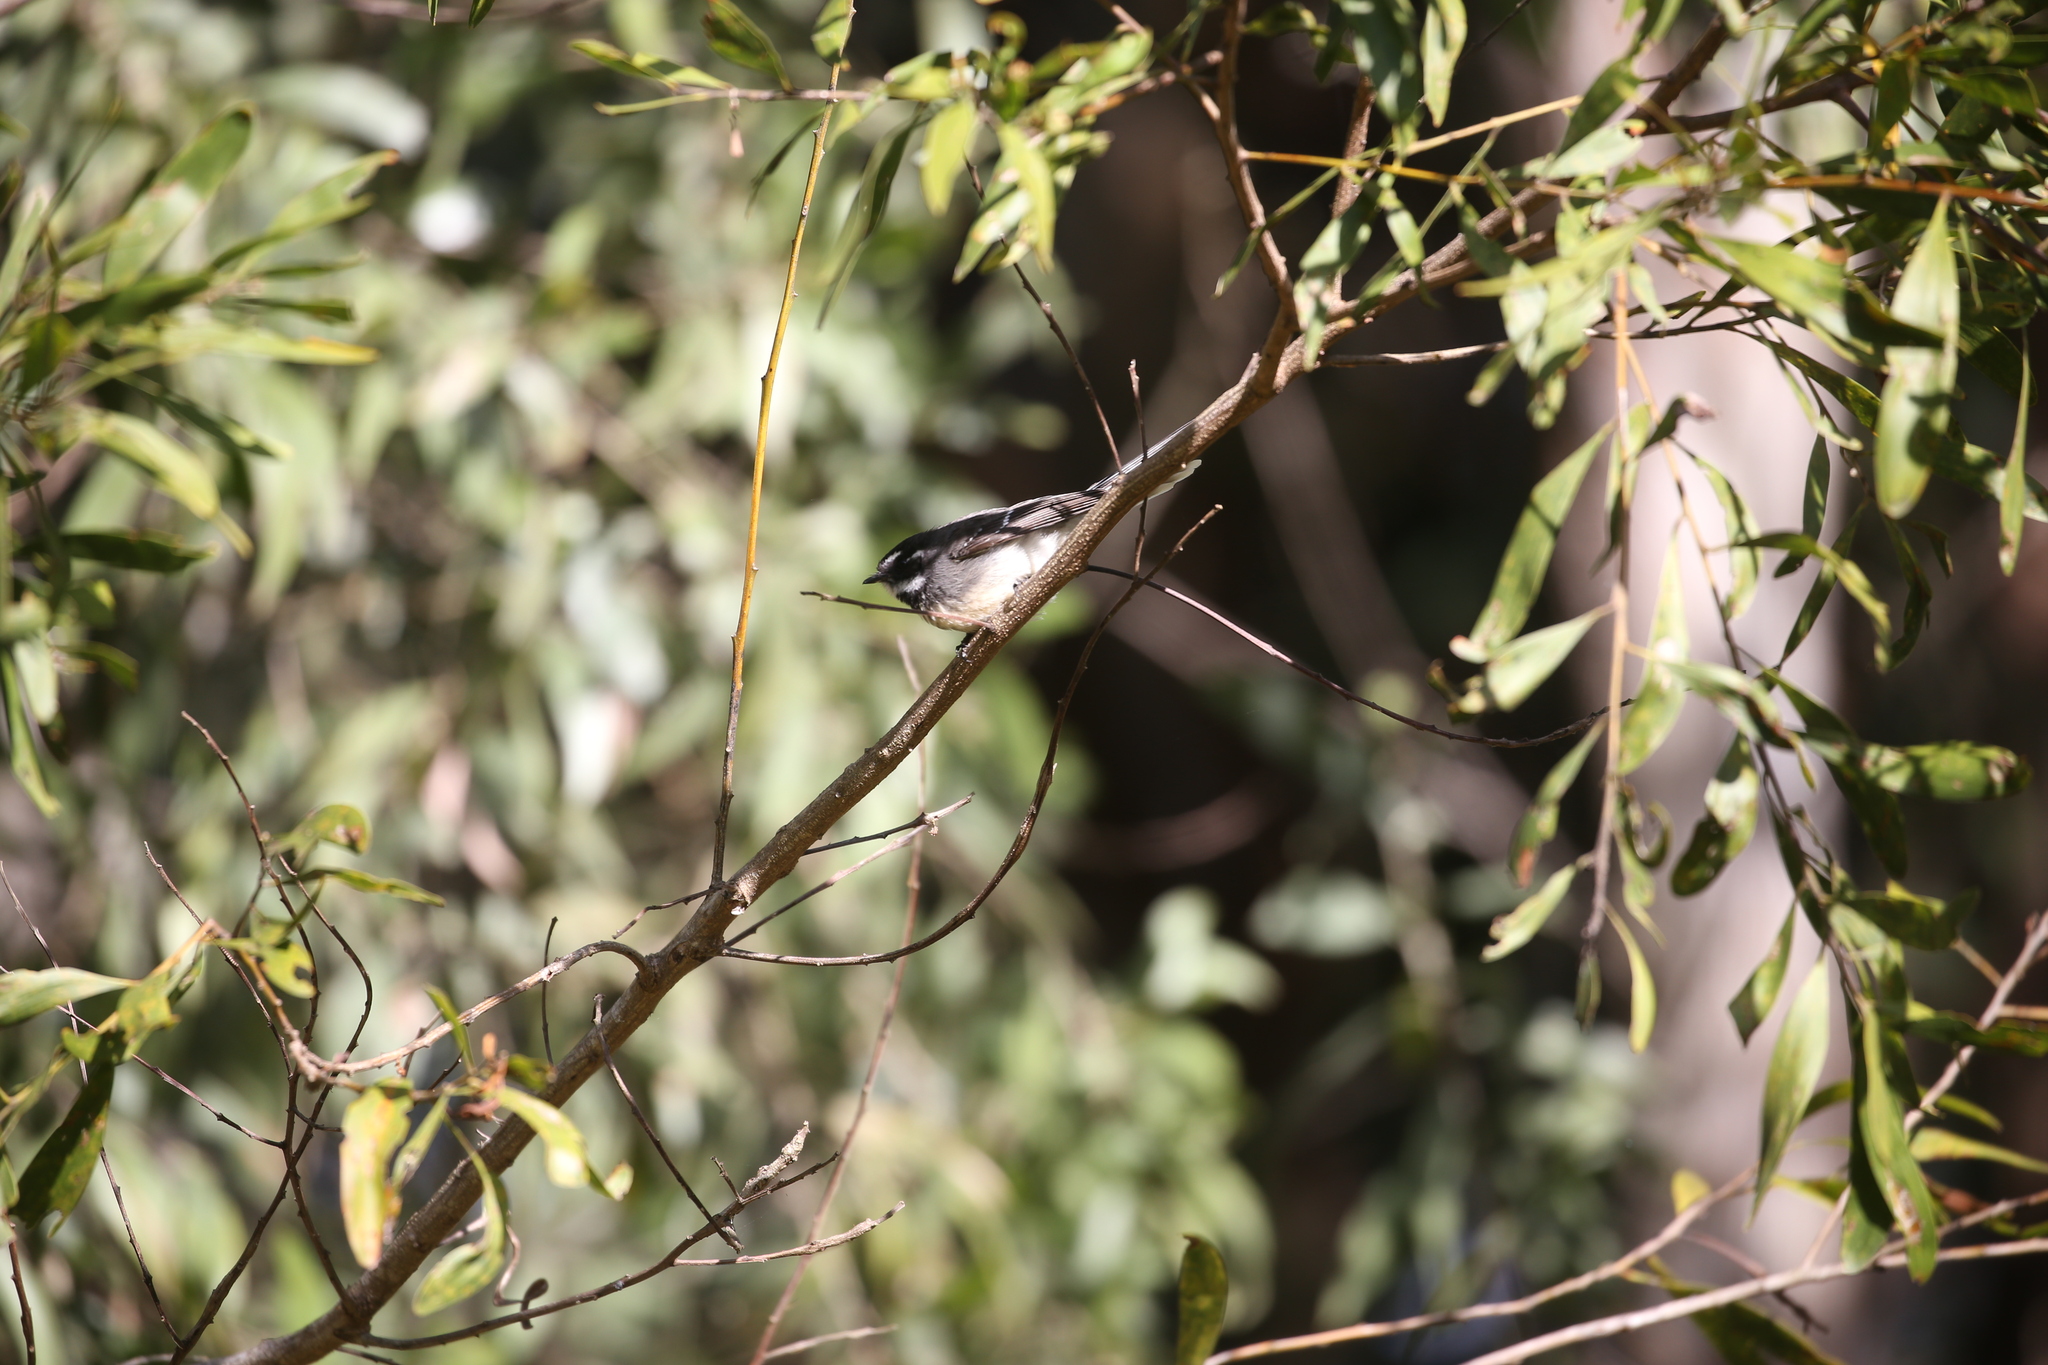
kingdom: Animalia
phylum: Chordata
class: Aves
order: Passeriformes
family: Rhipiduridae
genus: Rhipidura
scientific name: Rhipidura albiscapa
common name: Grey fantail
